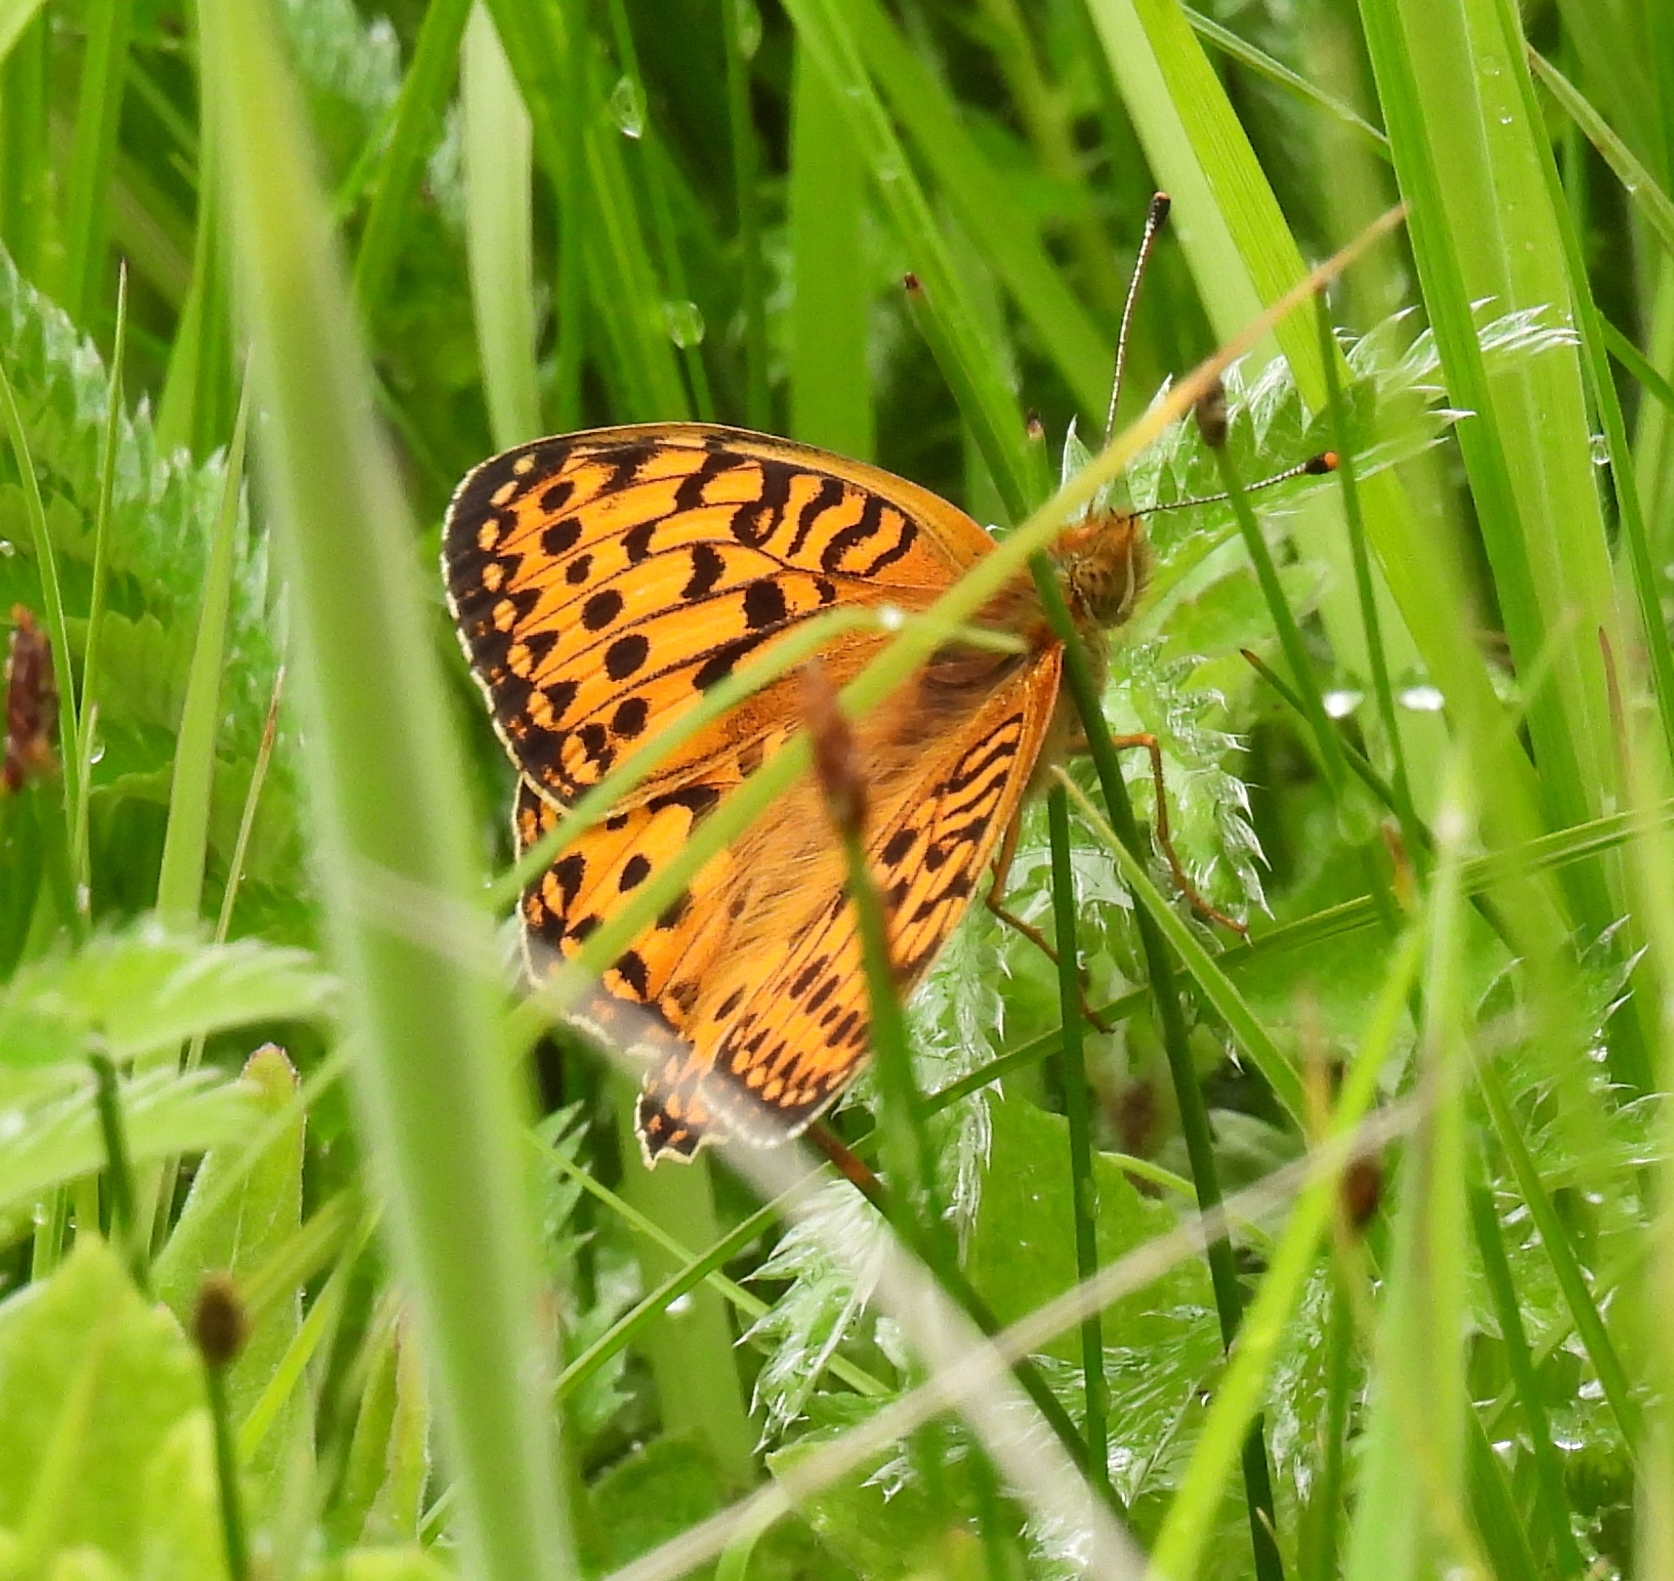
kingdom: Animalia
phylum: Arthropoda
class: Insecta
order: Lepidoptera
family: Nymphalidae
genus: Speyeria
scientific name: Speyeria aglaja
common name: Dark green fritillary
